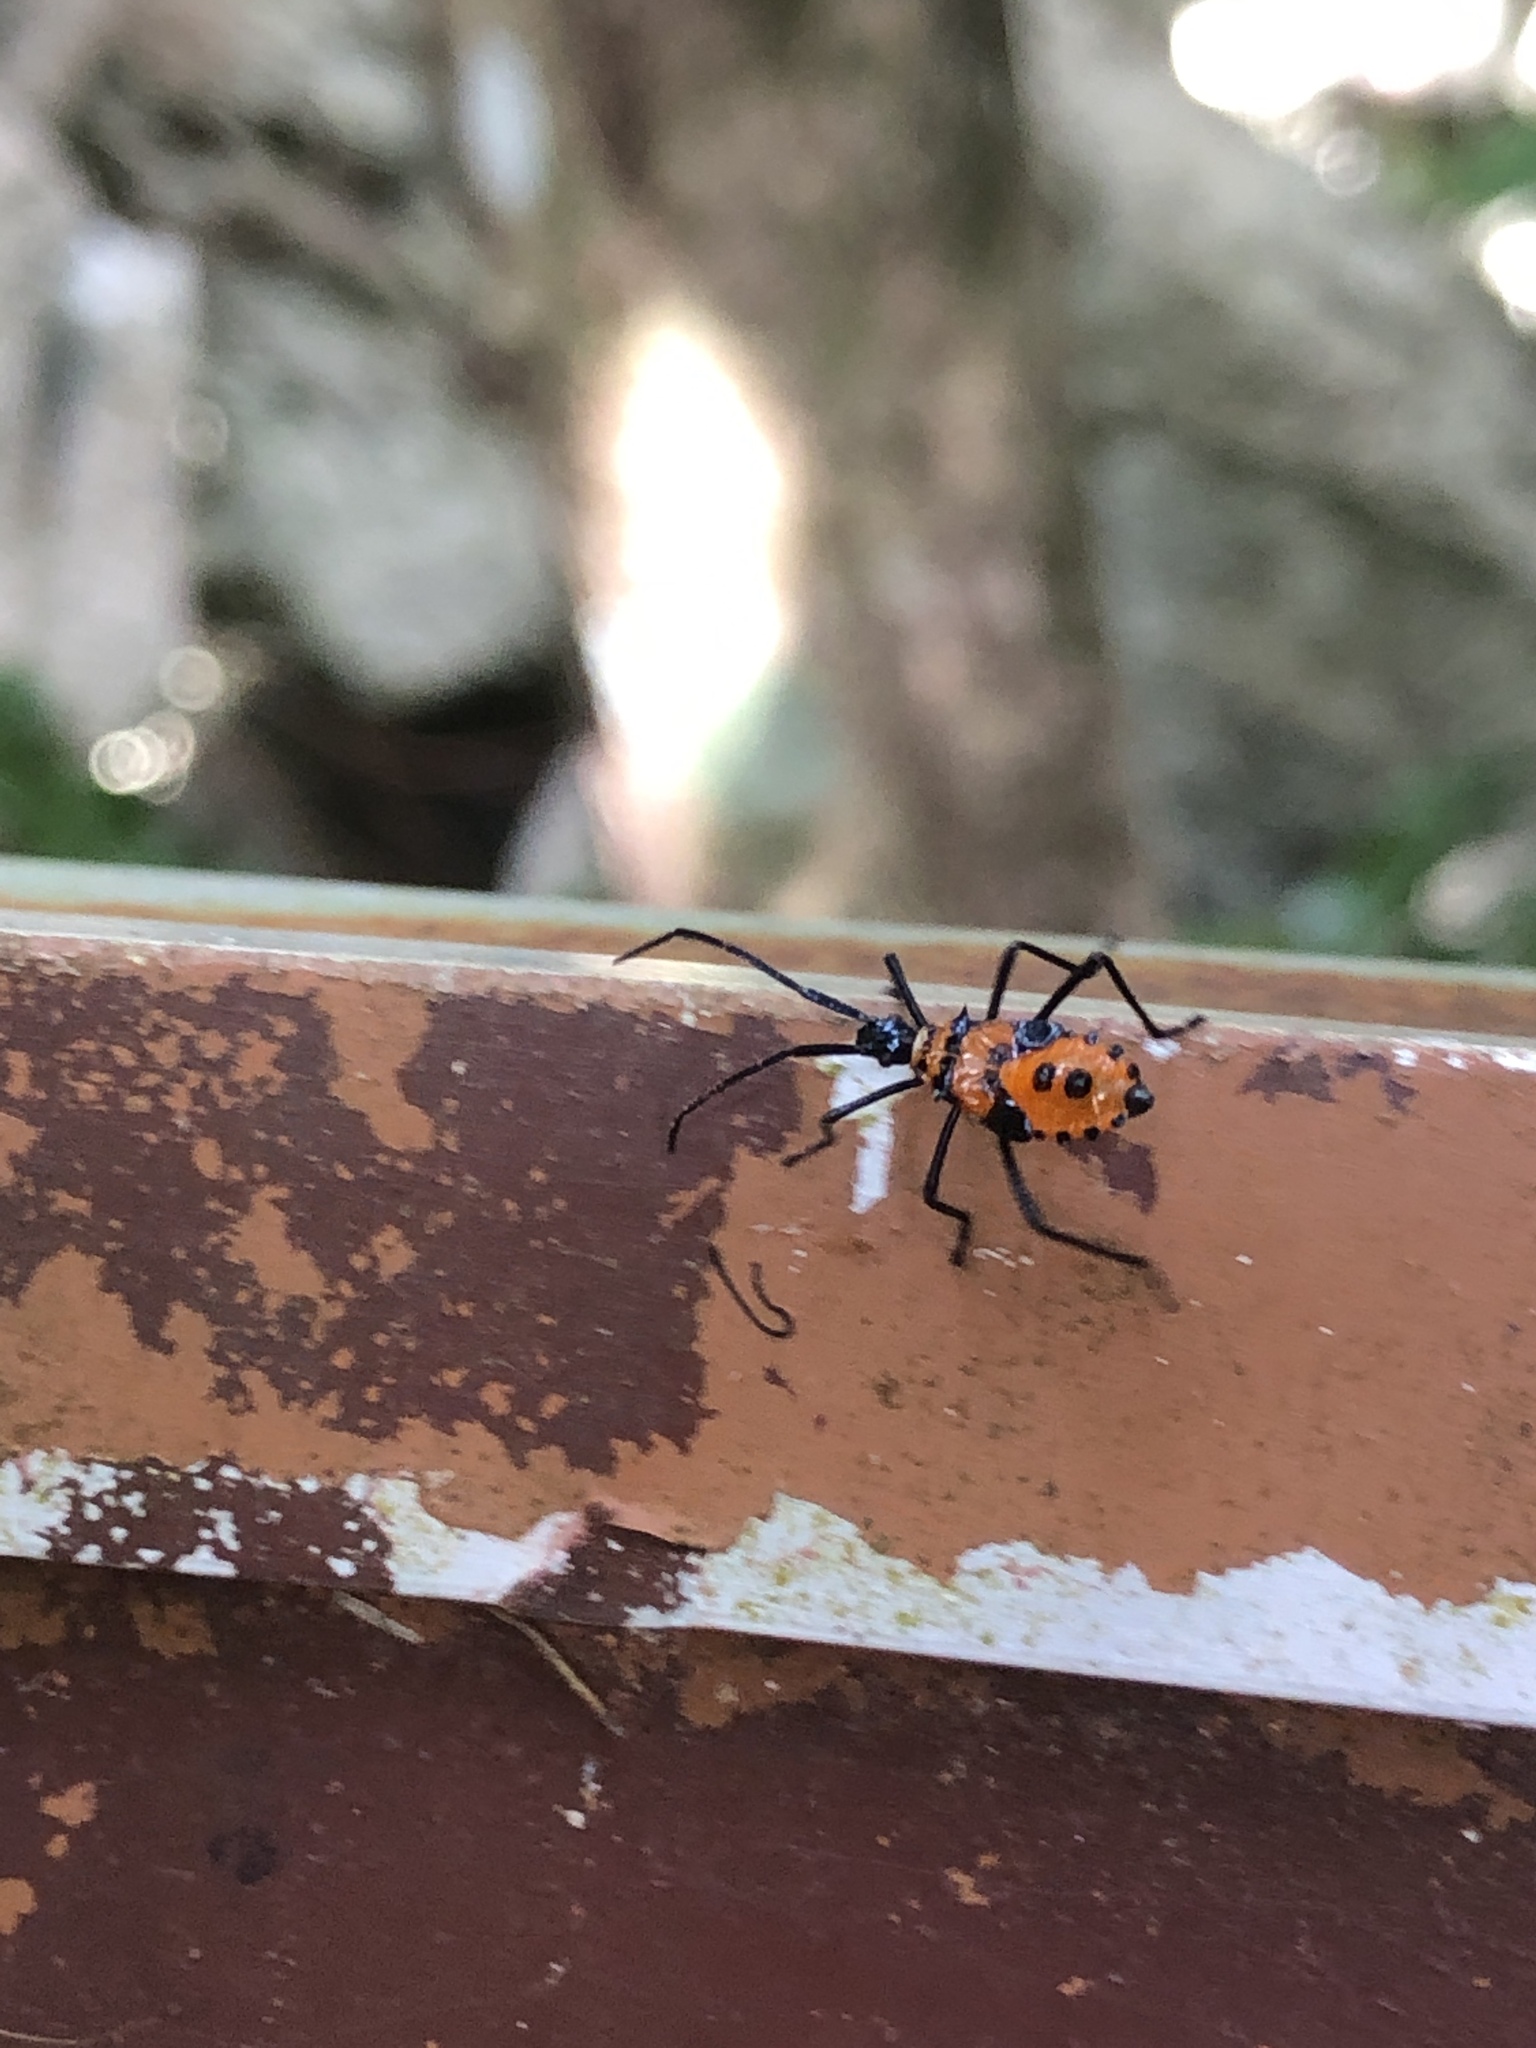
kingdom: Animalia
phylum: Arthropoda
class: Insecta
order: Hemiptera
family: Coreidae
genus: Plinachtus
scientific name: Plinachtus basalis
